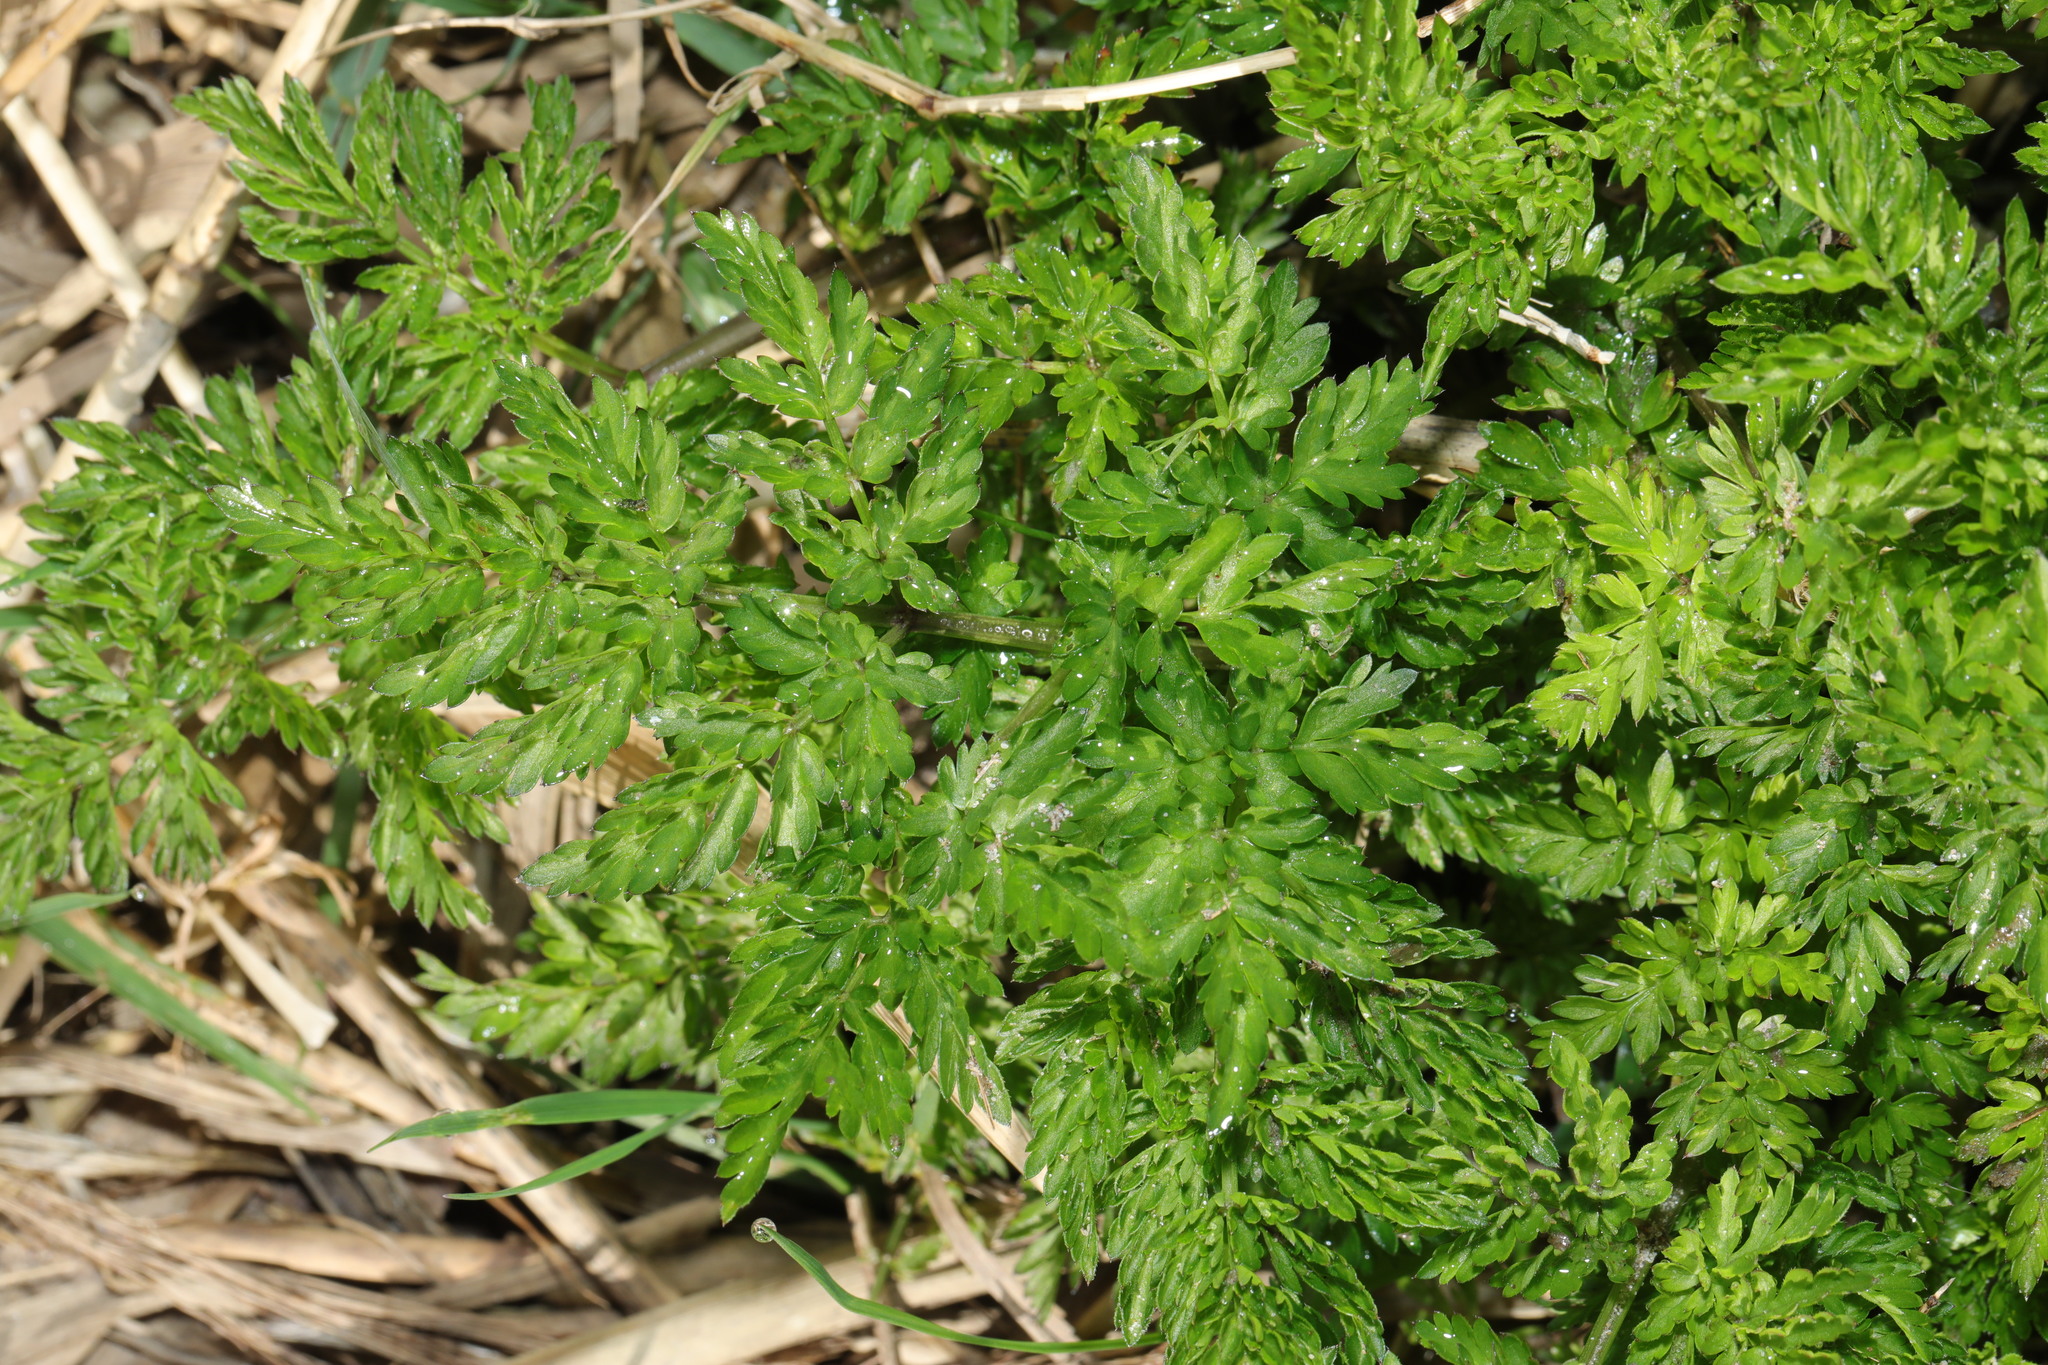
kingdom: Plantae
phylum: Tracheophyta
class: Magnoliopsida
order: Apiales
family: Apiaceae
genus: Anthriscus
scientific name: Anthriscus sylvestris
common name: Cow parsley
